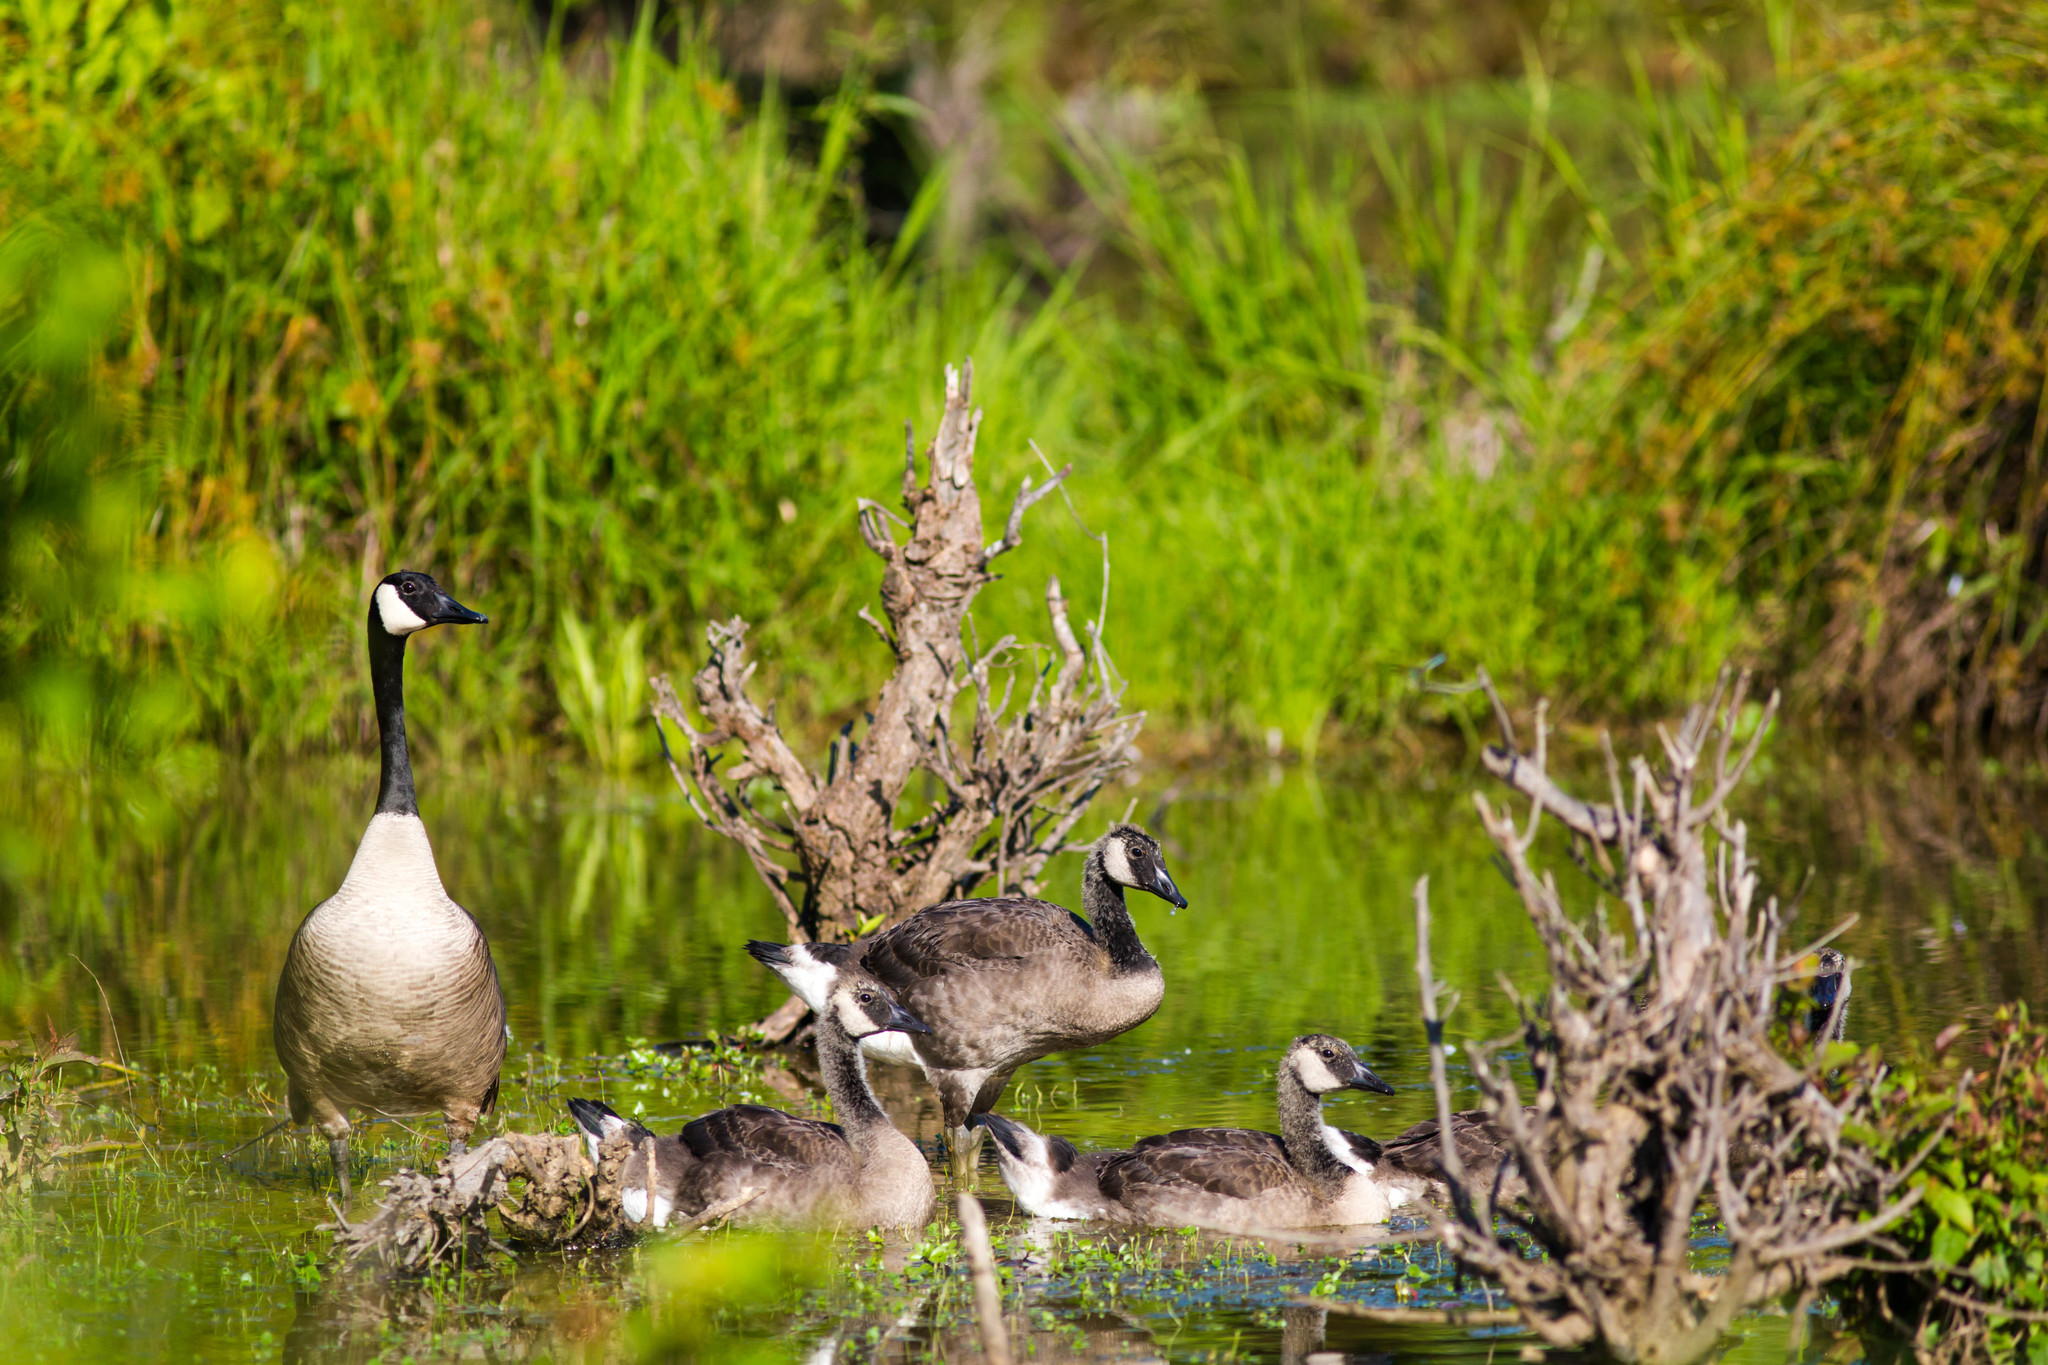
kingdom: Animalia
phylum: Chordata
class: Aves
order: Anseriformes
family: Anatidae
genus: Branta
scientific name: Branta canadensis
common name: Canada goose
